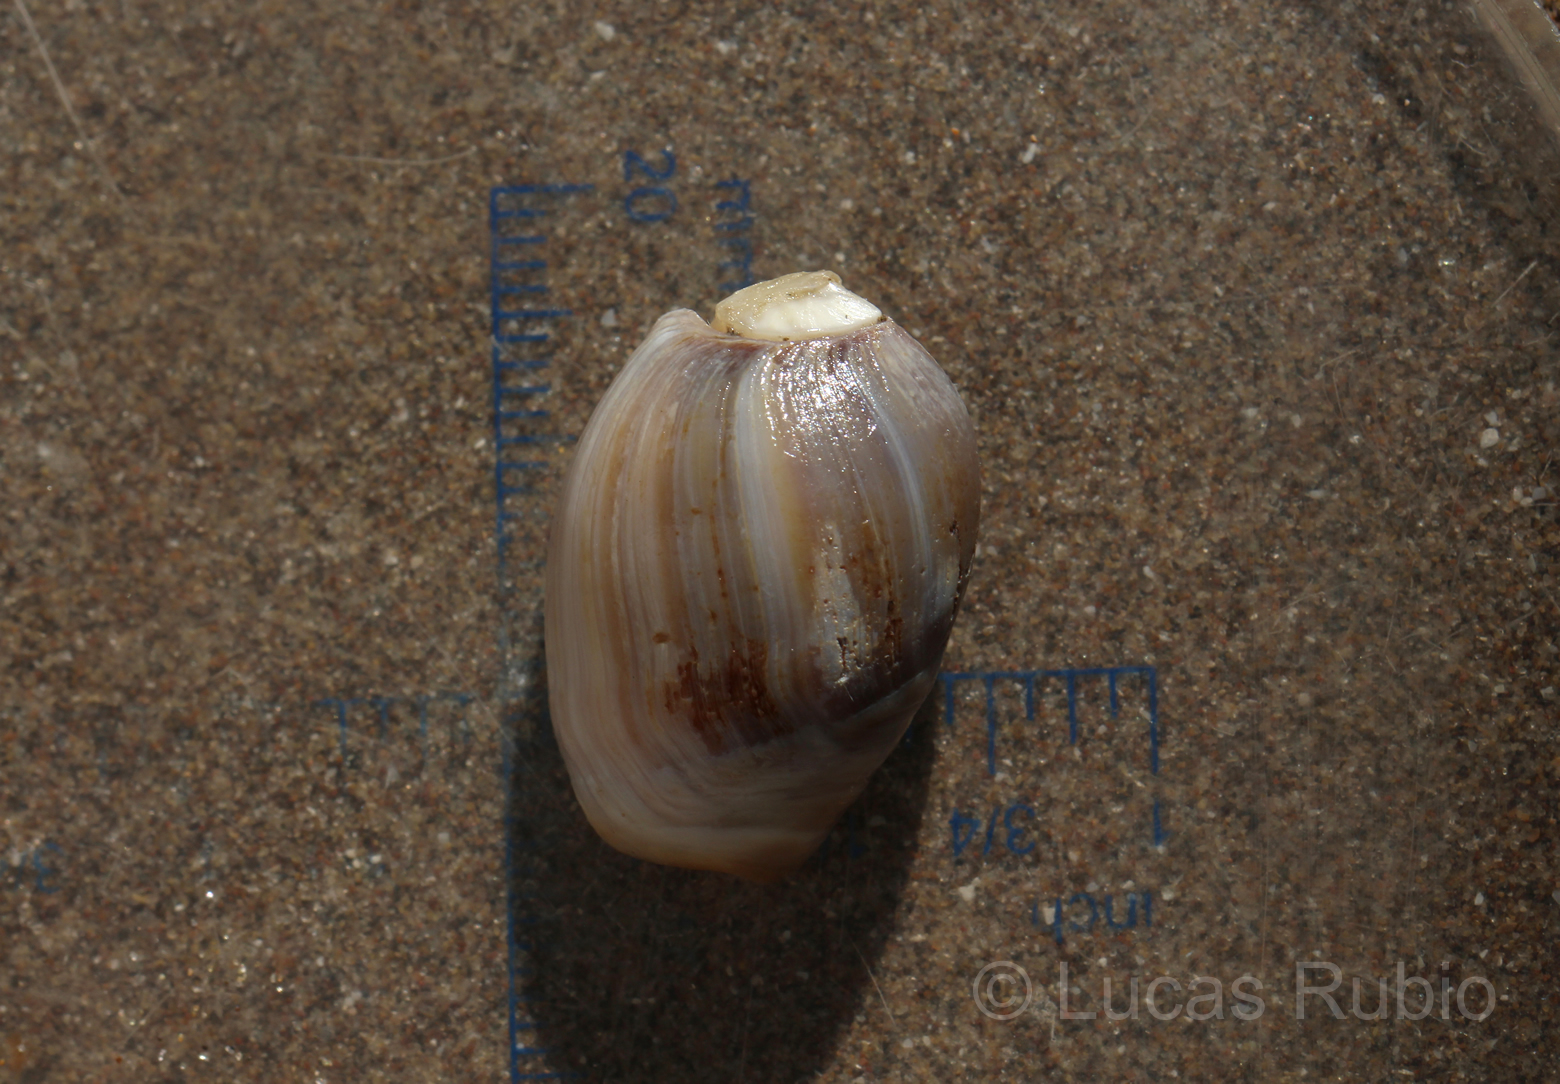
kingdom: Animalia
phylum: Mollusca
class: Gastropoda
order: Neogastropoda
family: Olividae
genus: Olivancillaria
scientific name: Olivancillaria deshayesiana
